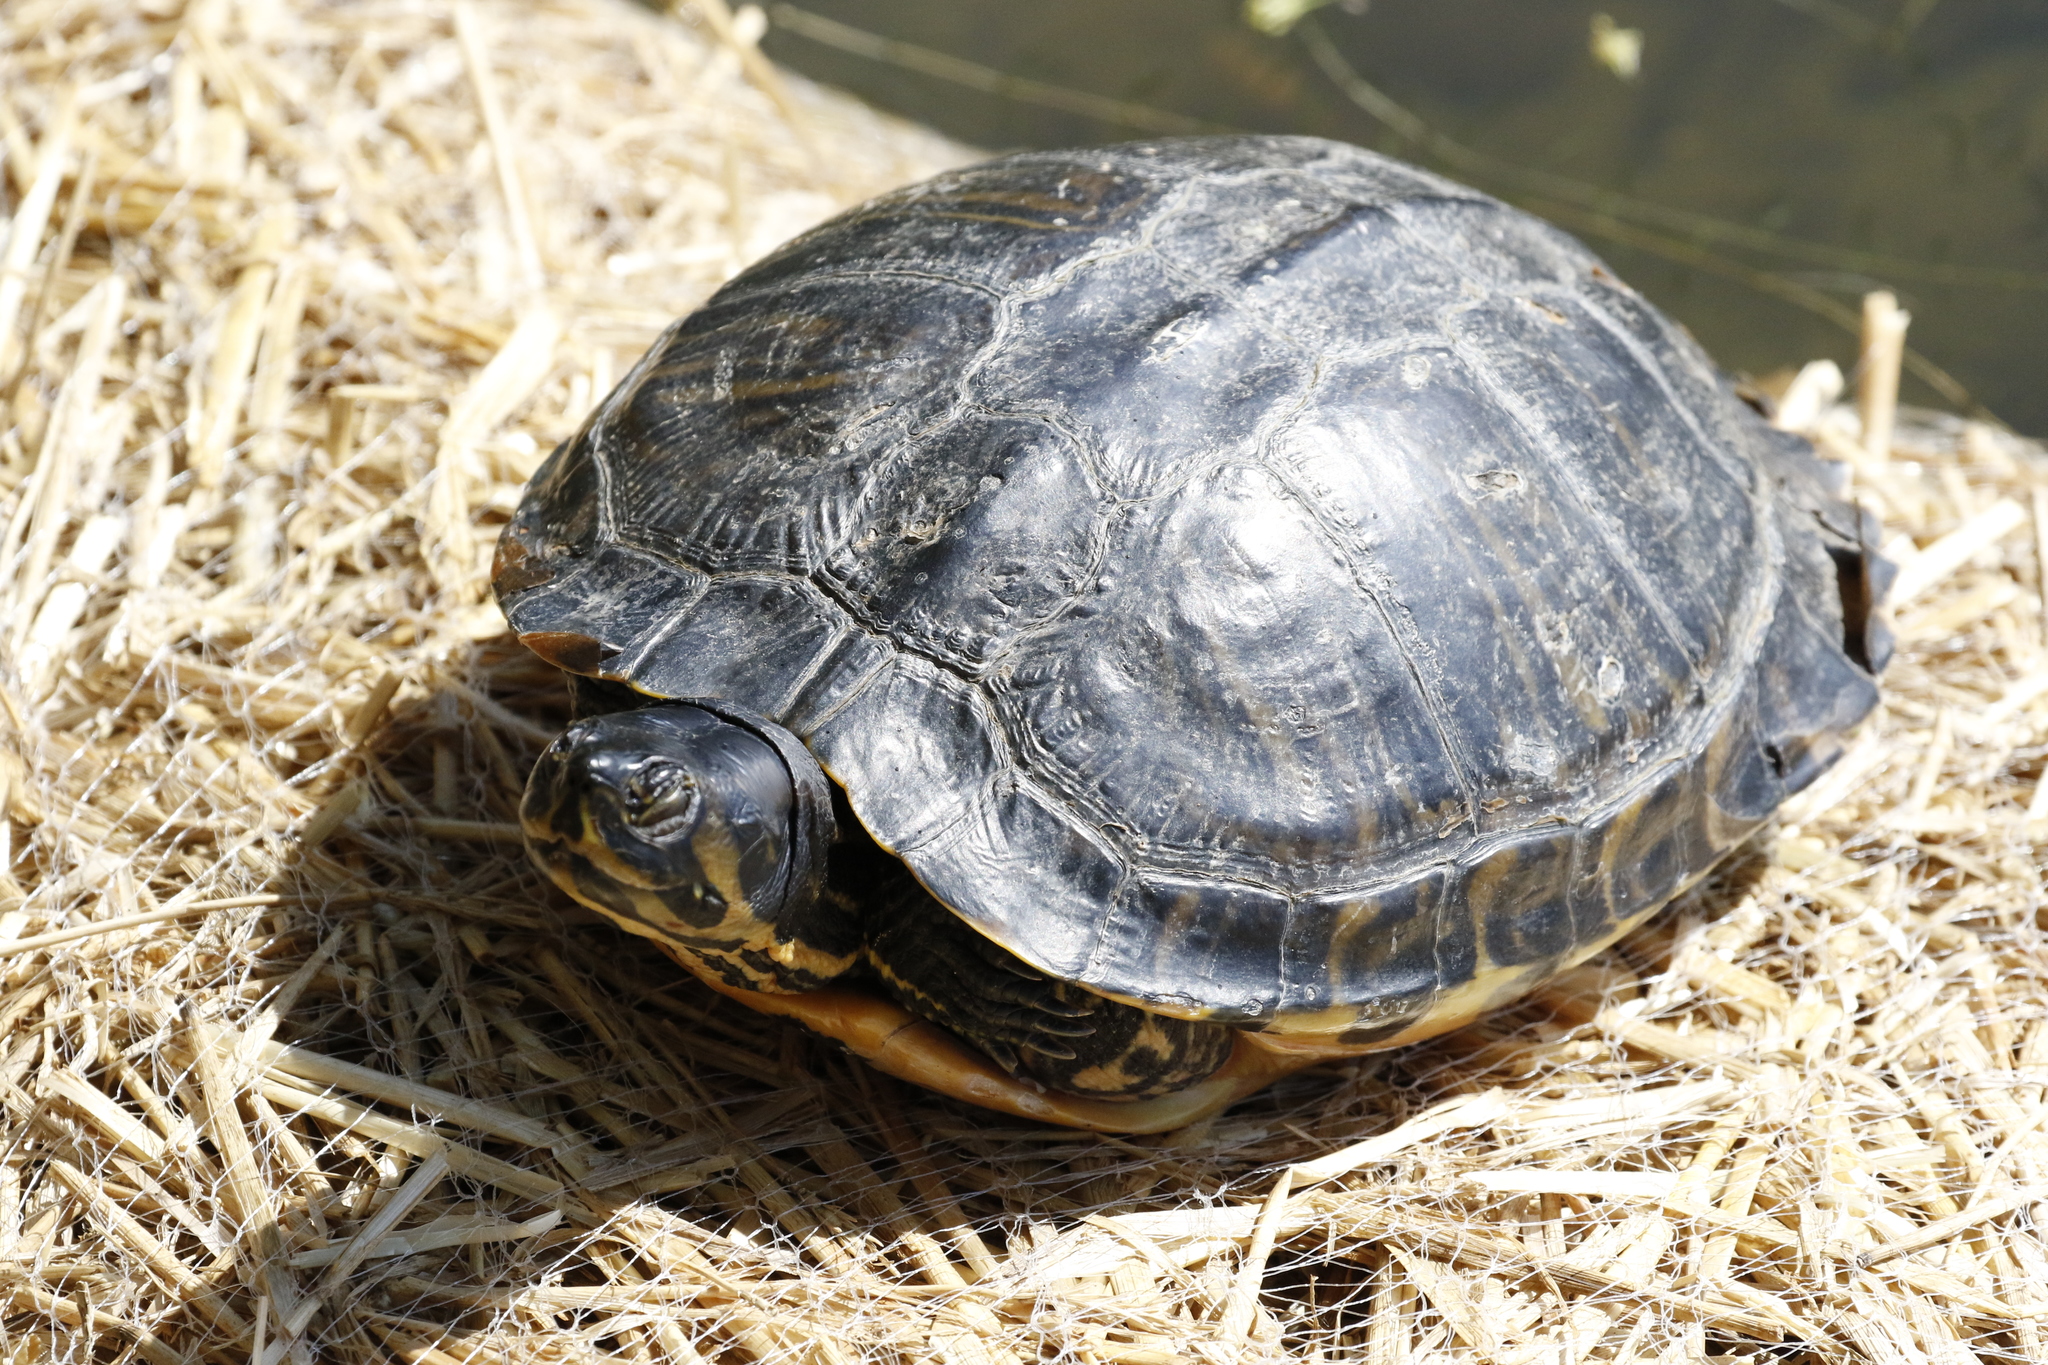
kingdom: Animalia
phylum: Chordata
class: Testudines
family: Emydidae
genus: Trachemys
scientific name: Trachemys scripta
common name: Slider
